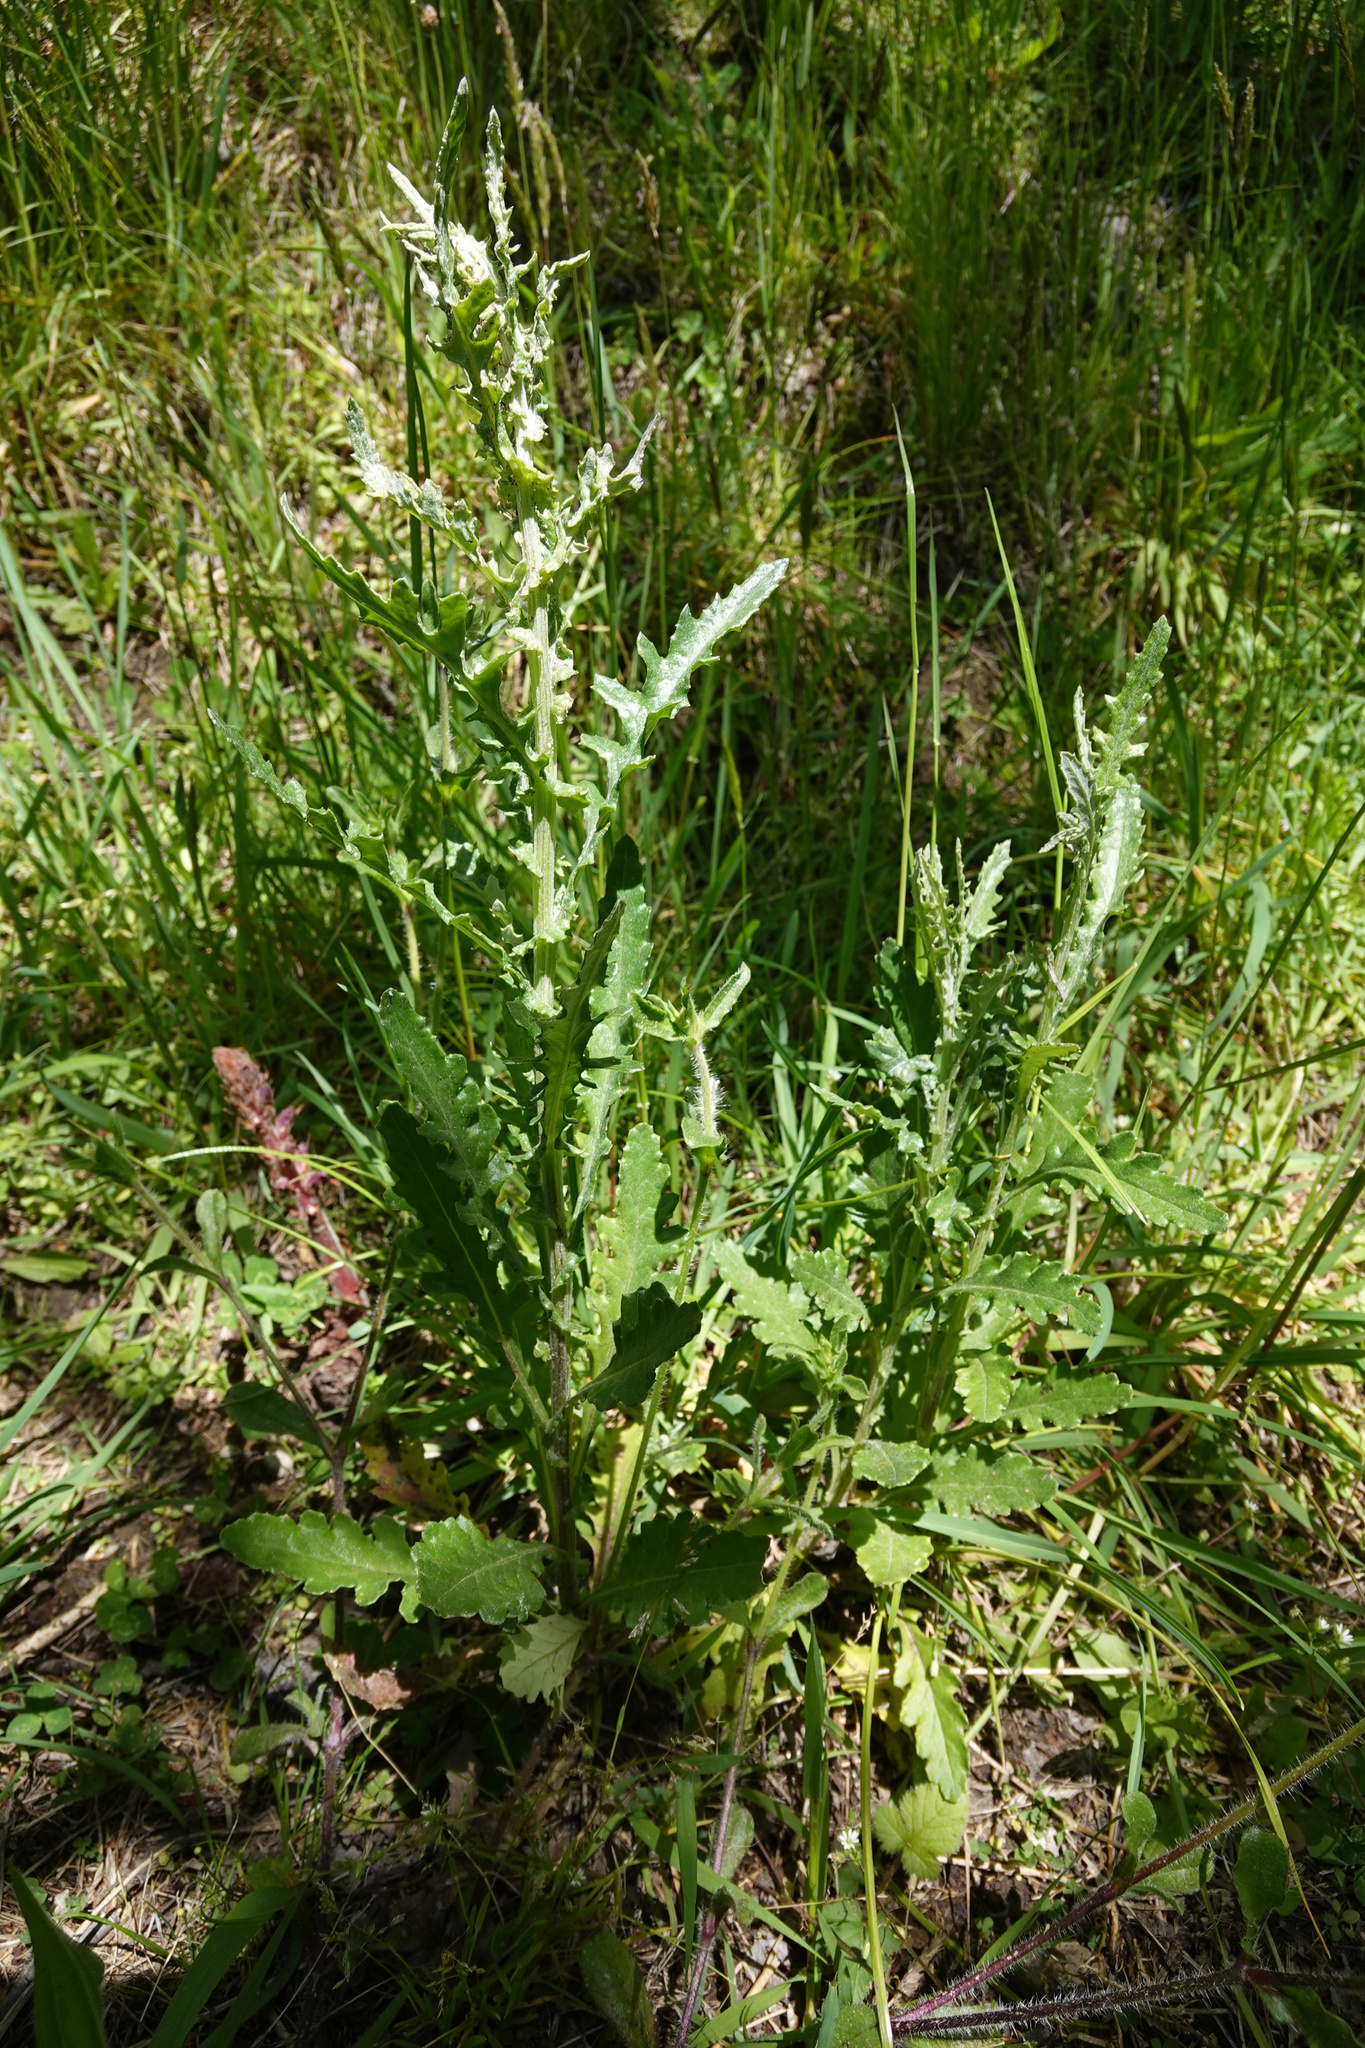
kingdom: Plantae
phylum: Tracheophyta
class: Magnoliopsida
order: Asterales
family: Asteraceae
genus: Senecio
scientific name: Senecio glomeratus
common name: Cutleaf burnweed
